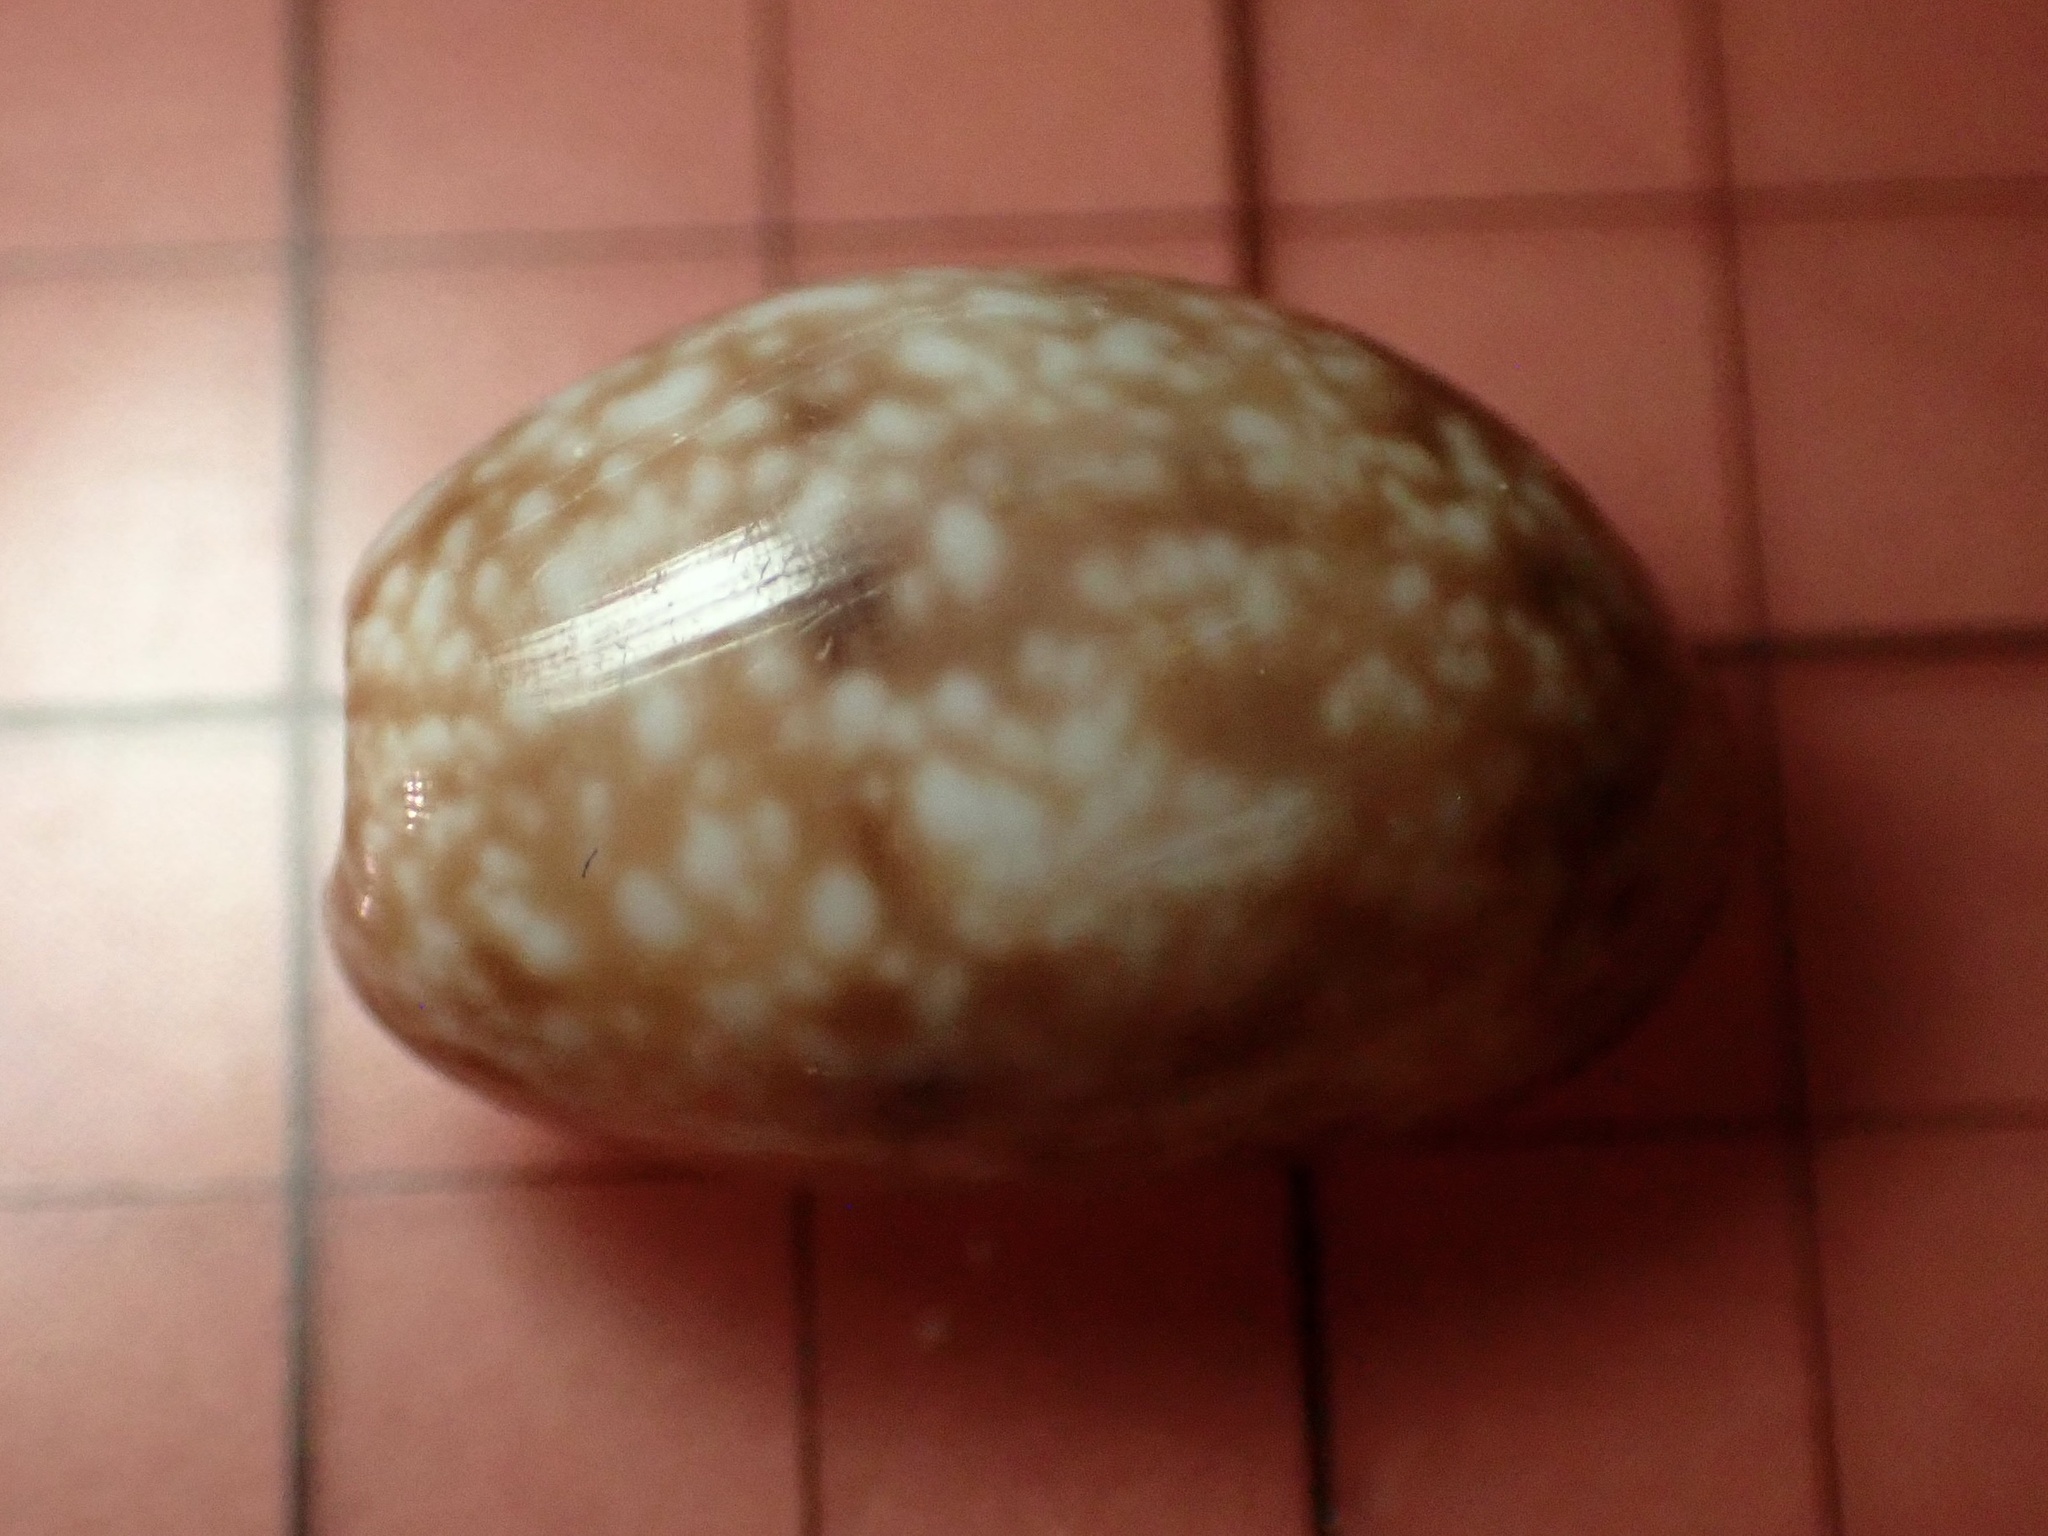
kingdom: Animalia
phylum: Mollusca
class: Gastropoda
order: Cephalaspidea
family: Bullidae
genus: Bulla
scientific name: Bulla vernicosa
